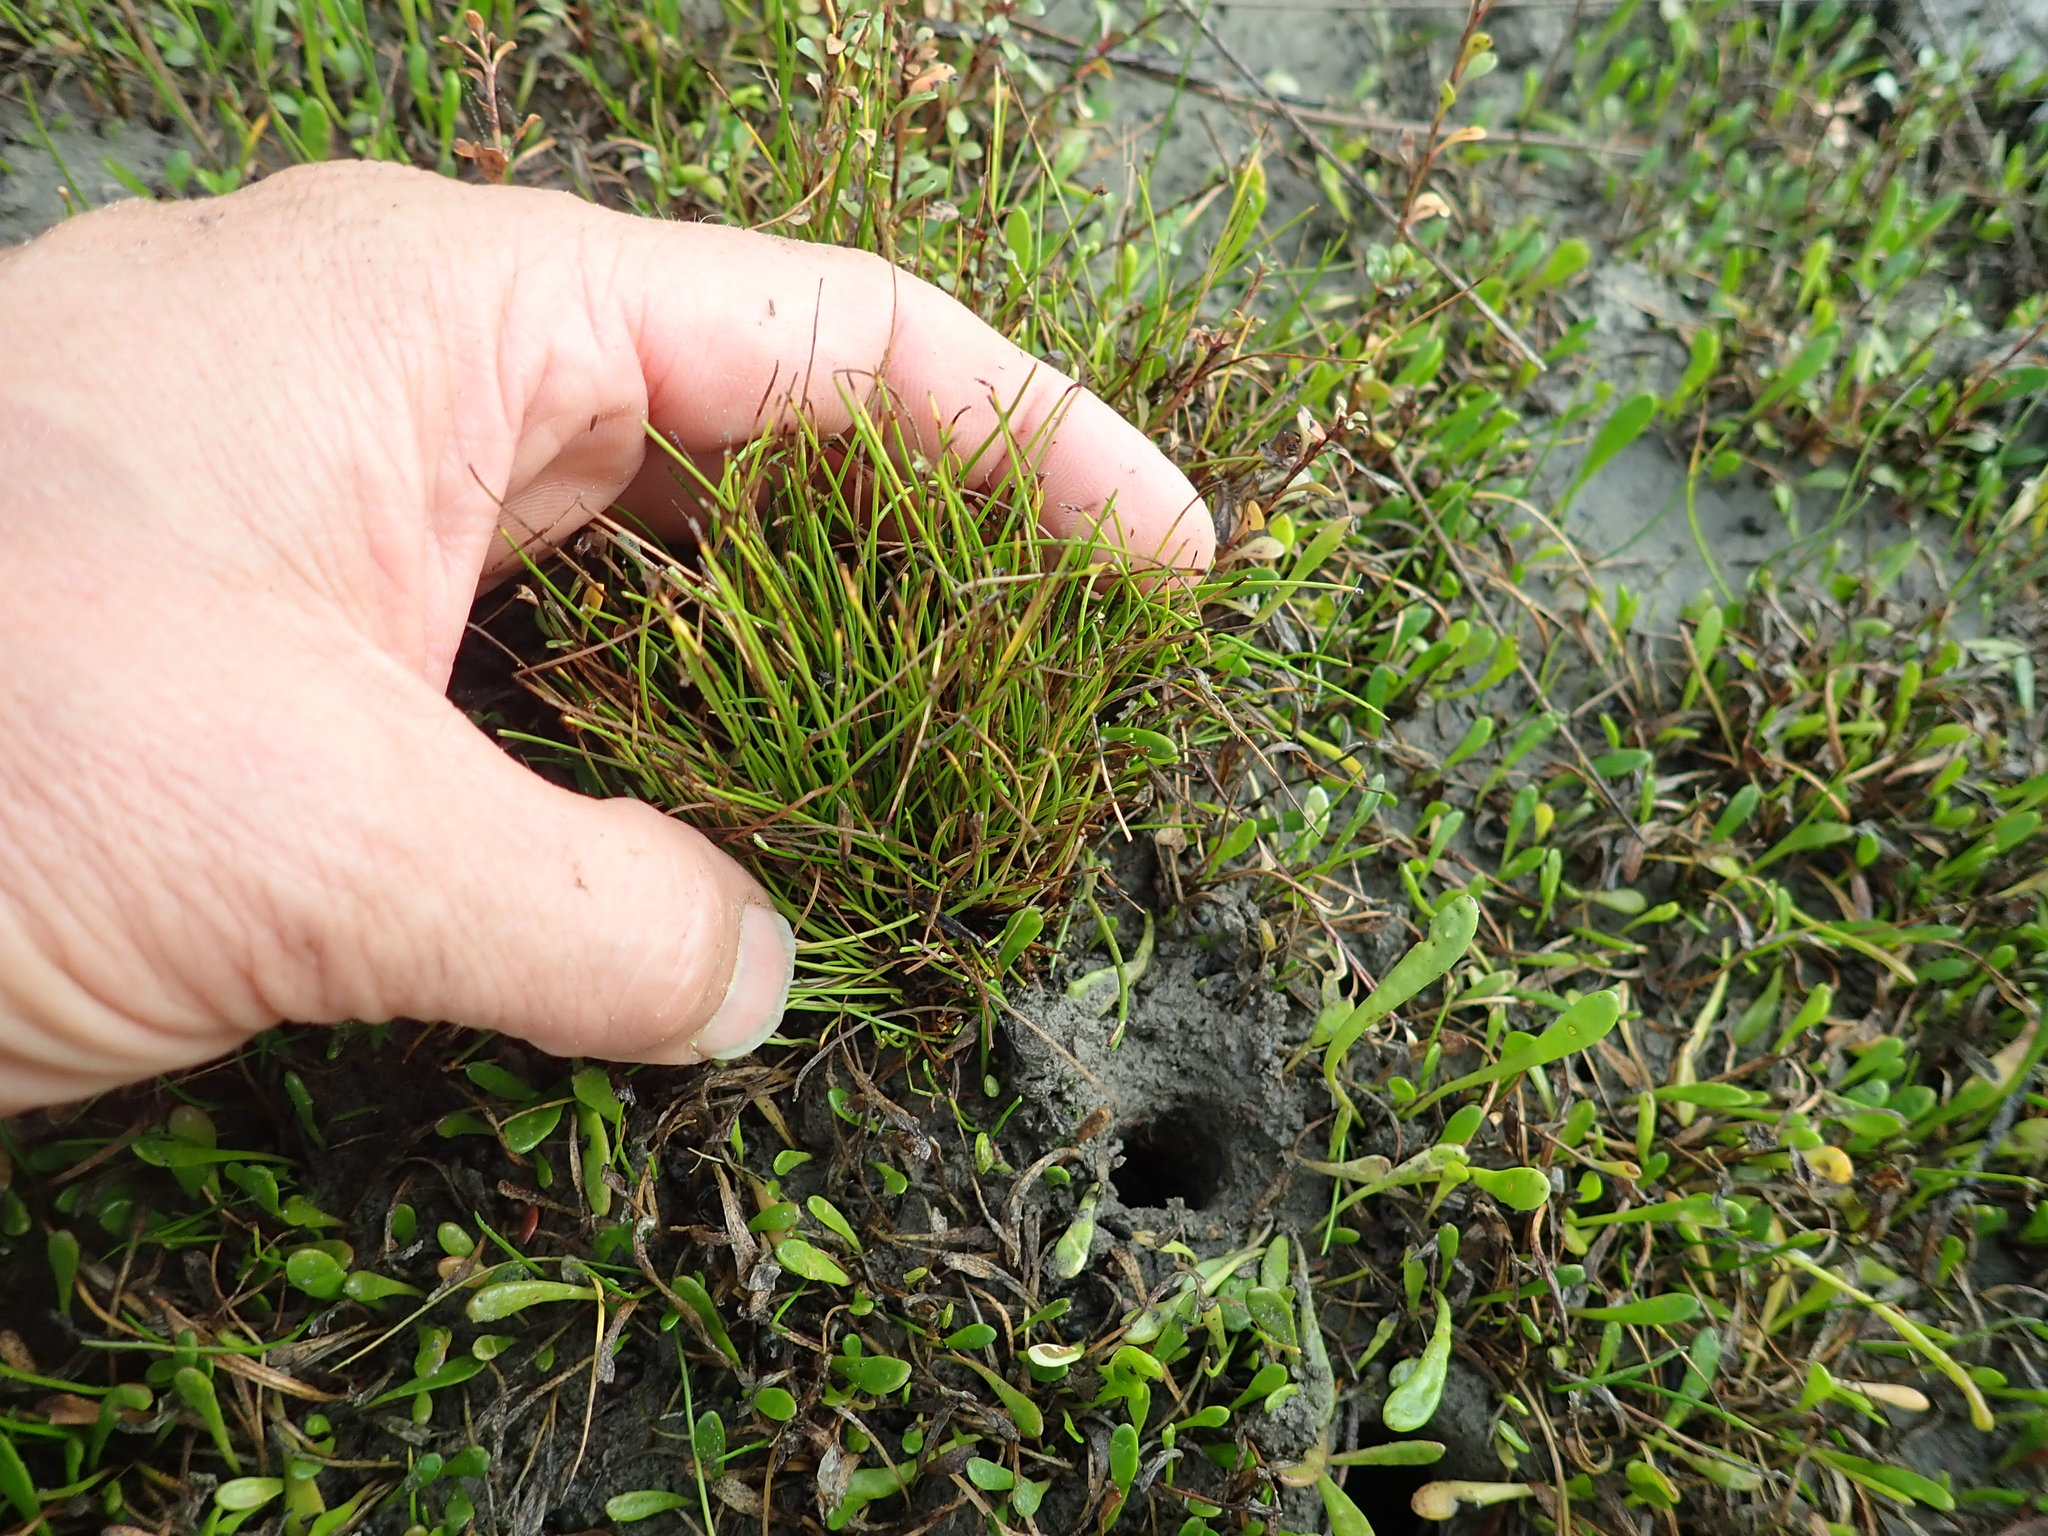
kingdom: Plantae
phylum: Tracheophyta
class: Liliopsida
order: Poales
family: Cyperaceae
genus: Isolepis
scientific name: Isolepis cernua
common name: Slender club-rush
